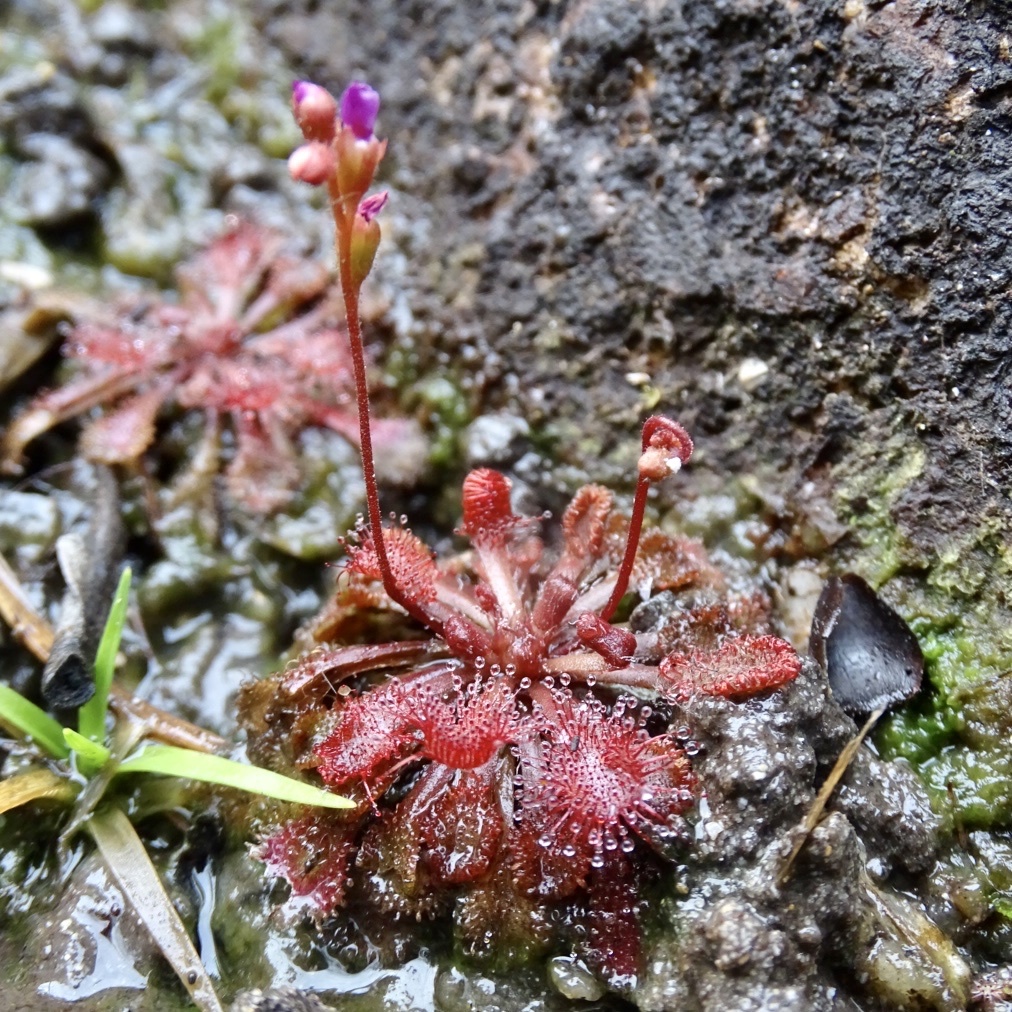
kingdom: Plantae
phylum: Tracheophyta
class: Magnoliopsida
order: Caryophyllales
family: Droseraceae
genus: Drosera
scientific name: Drosera spatulata
